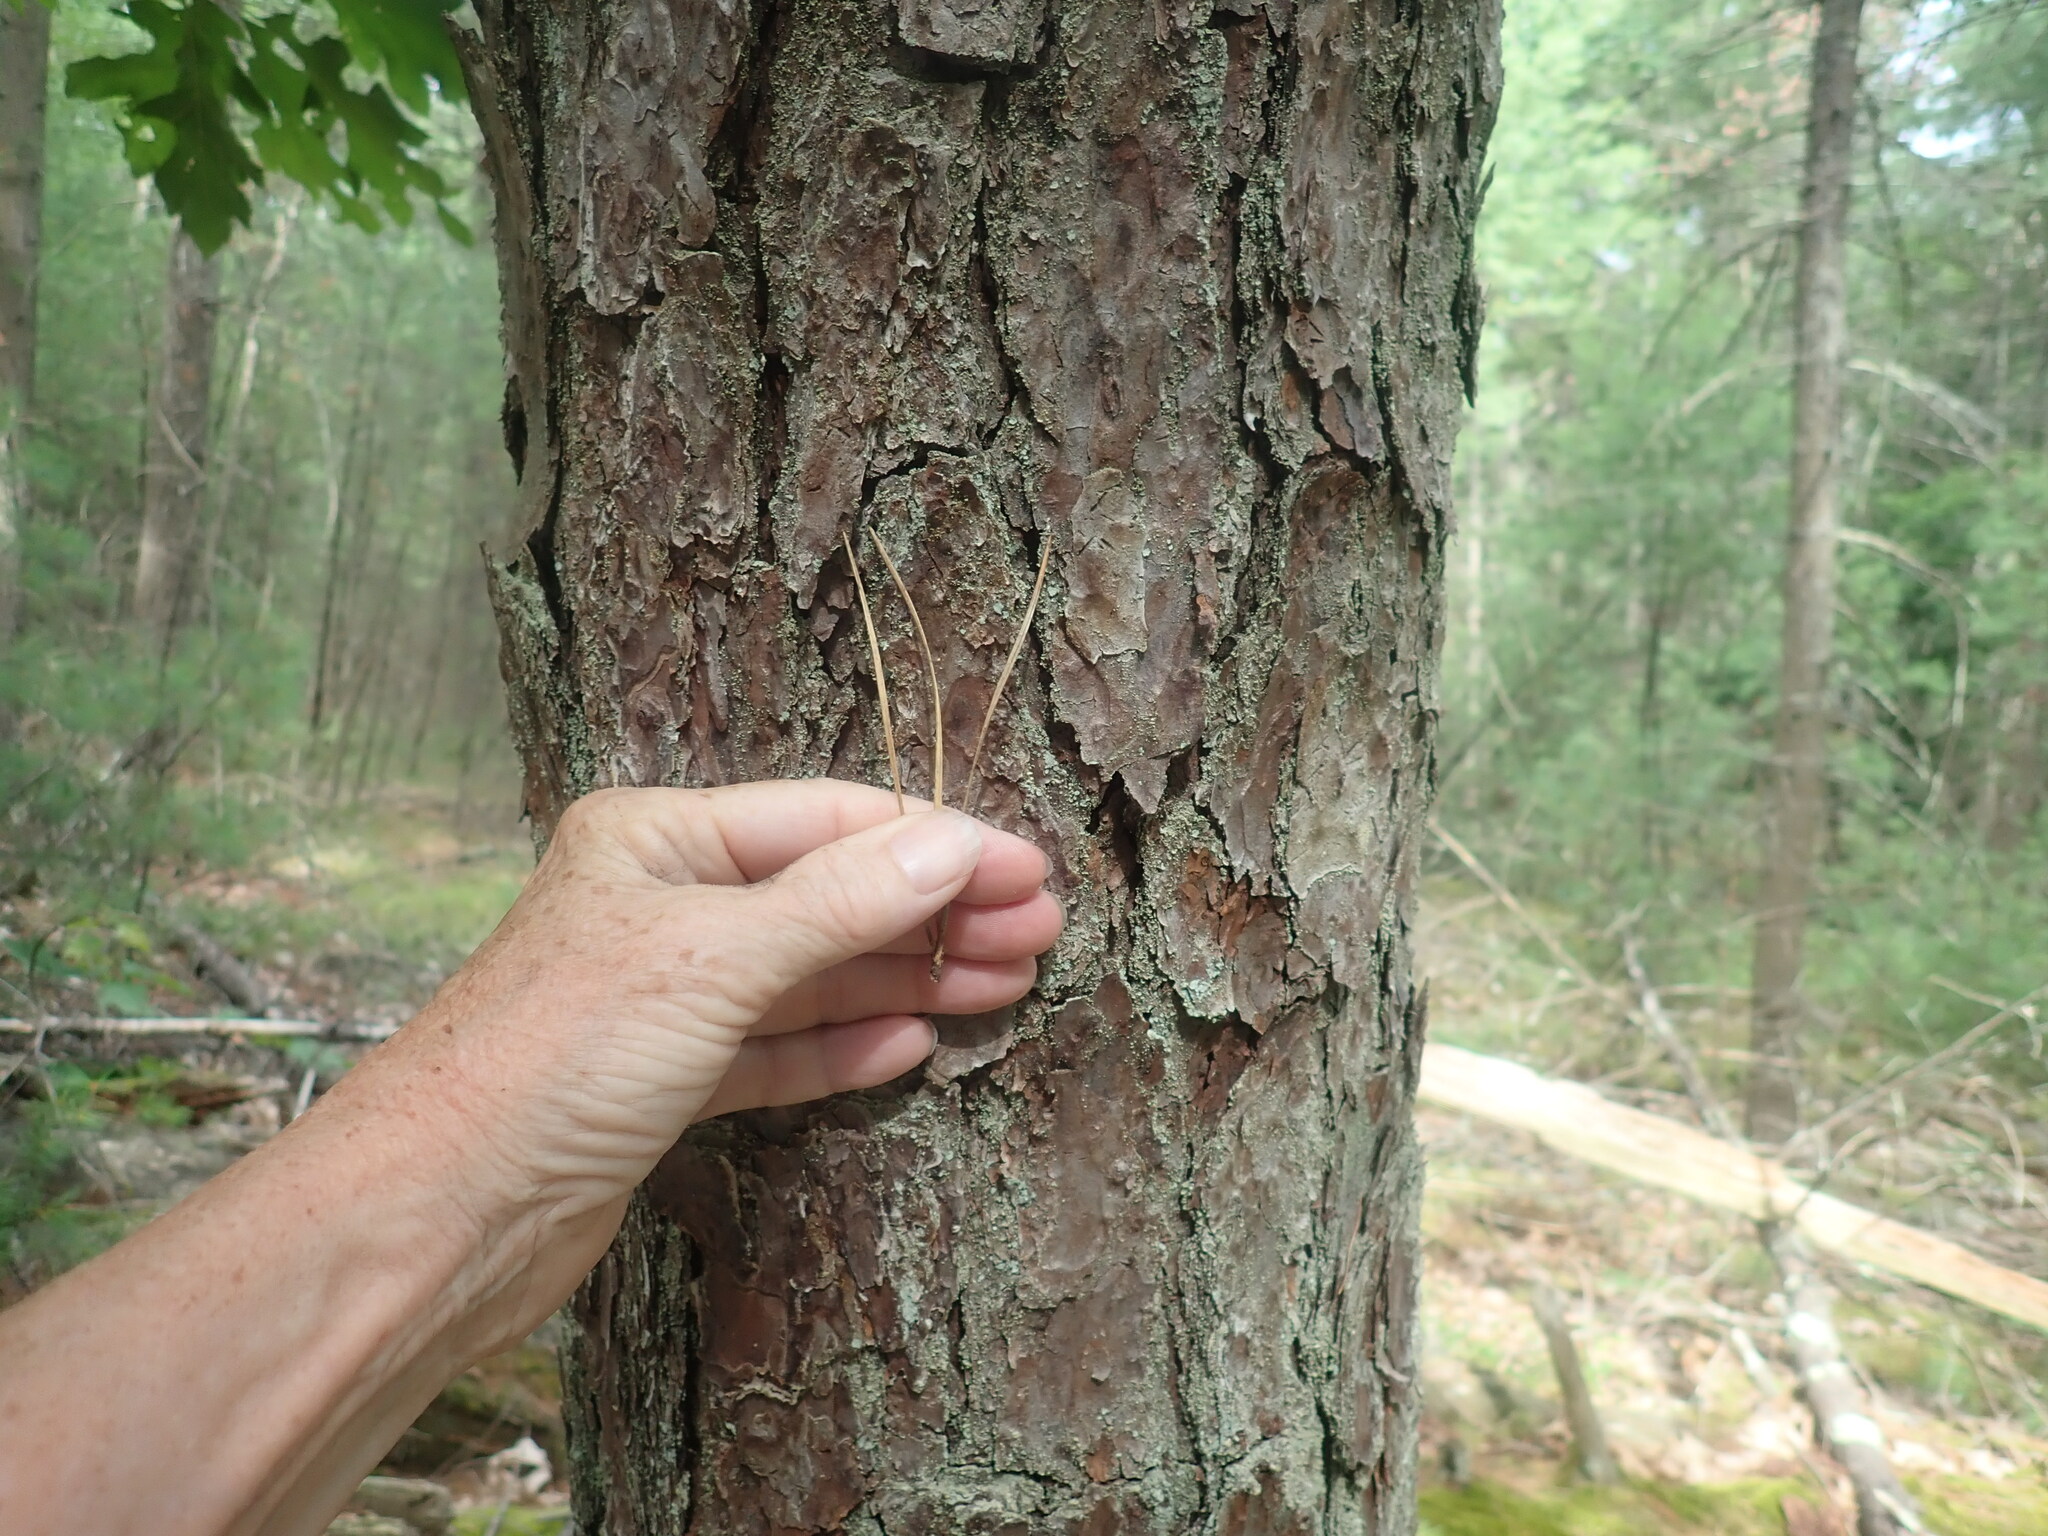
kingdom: Plantae
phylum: Tracheophyta
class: Pinopsida
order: Pinales
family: Pinaceae
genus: Pinus
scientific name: Pinus rigida
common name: Pitch pine
